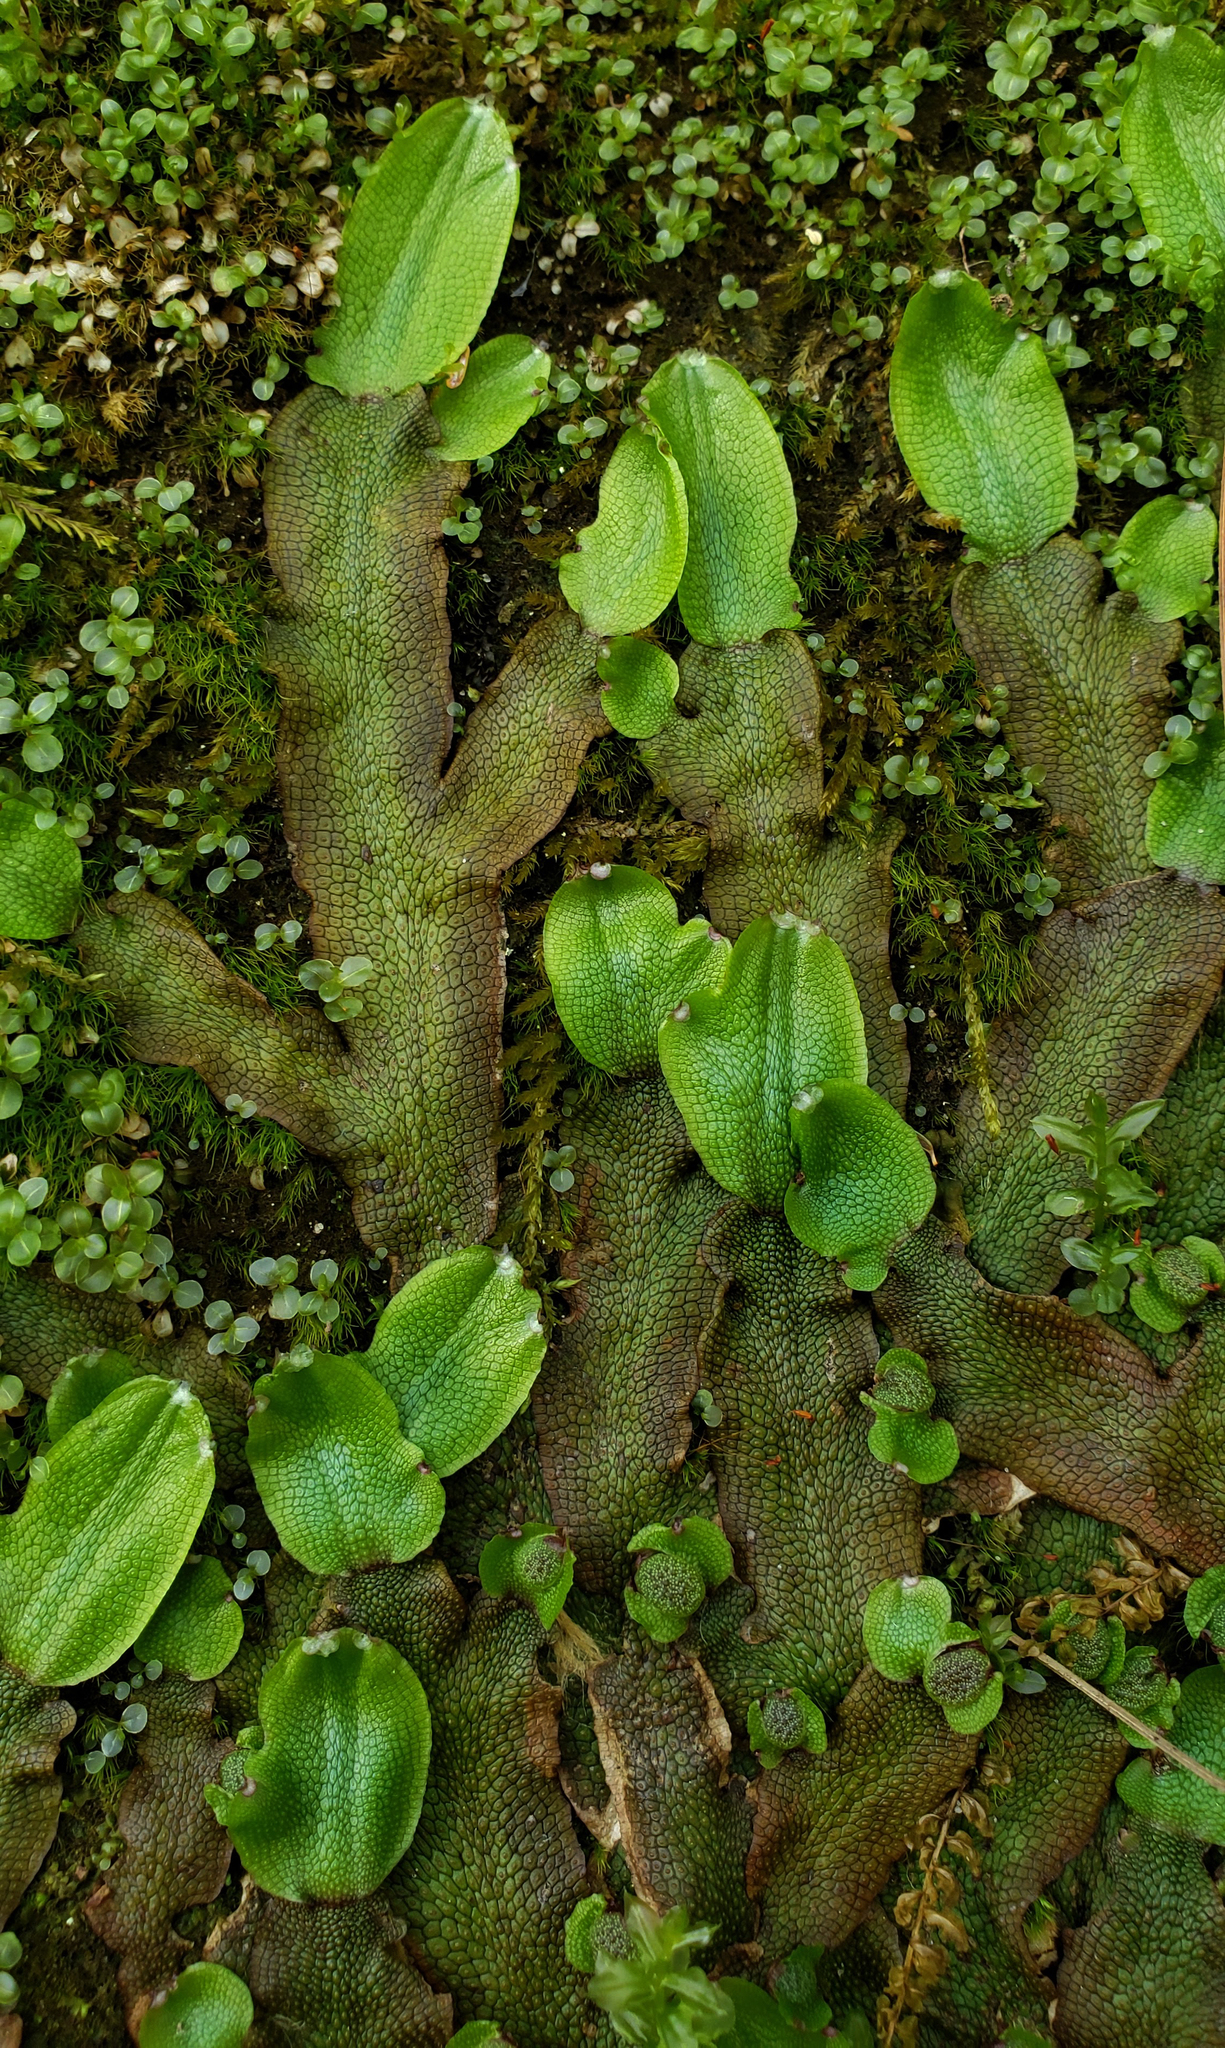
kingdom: Plantae
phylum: Marchantiophyta
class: Marchantiopsida
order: Marchantiales
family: Conocephalaceae
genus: Conocephalum
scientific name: Conocephalum salebrosum
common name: Cat-tongue liverwort
